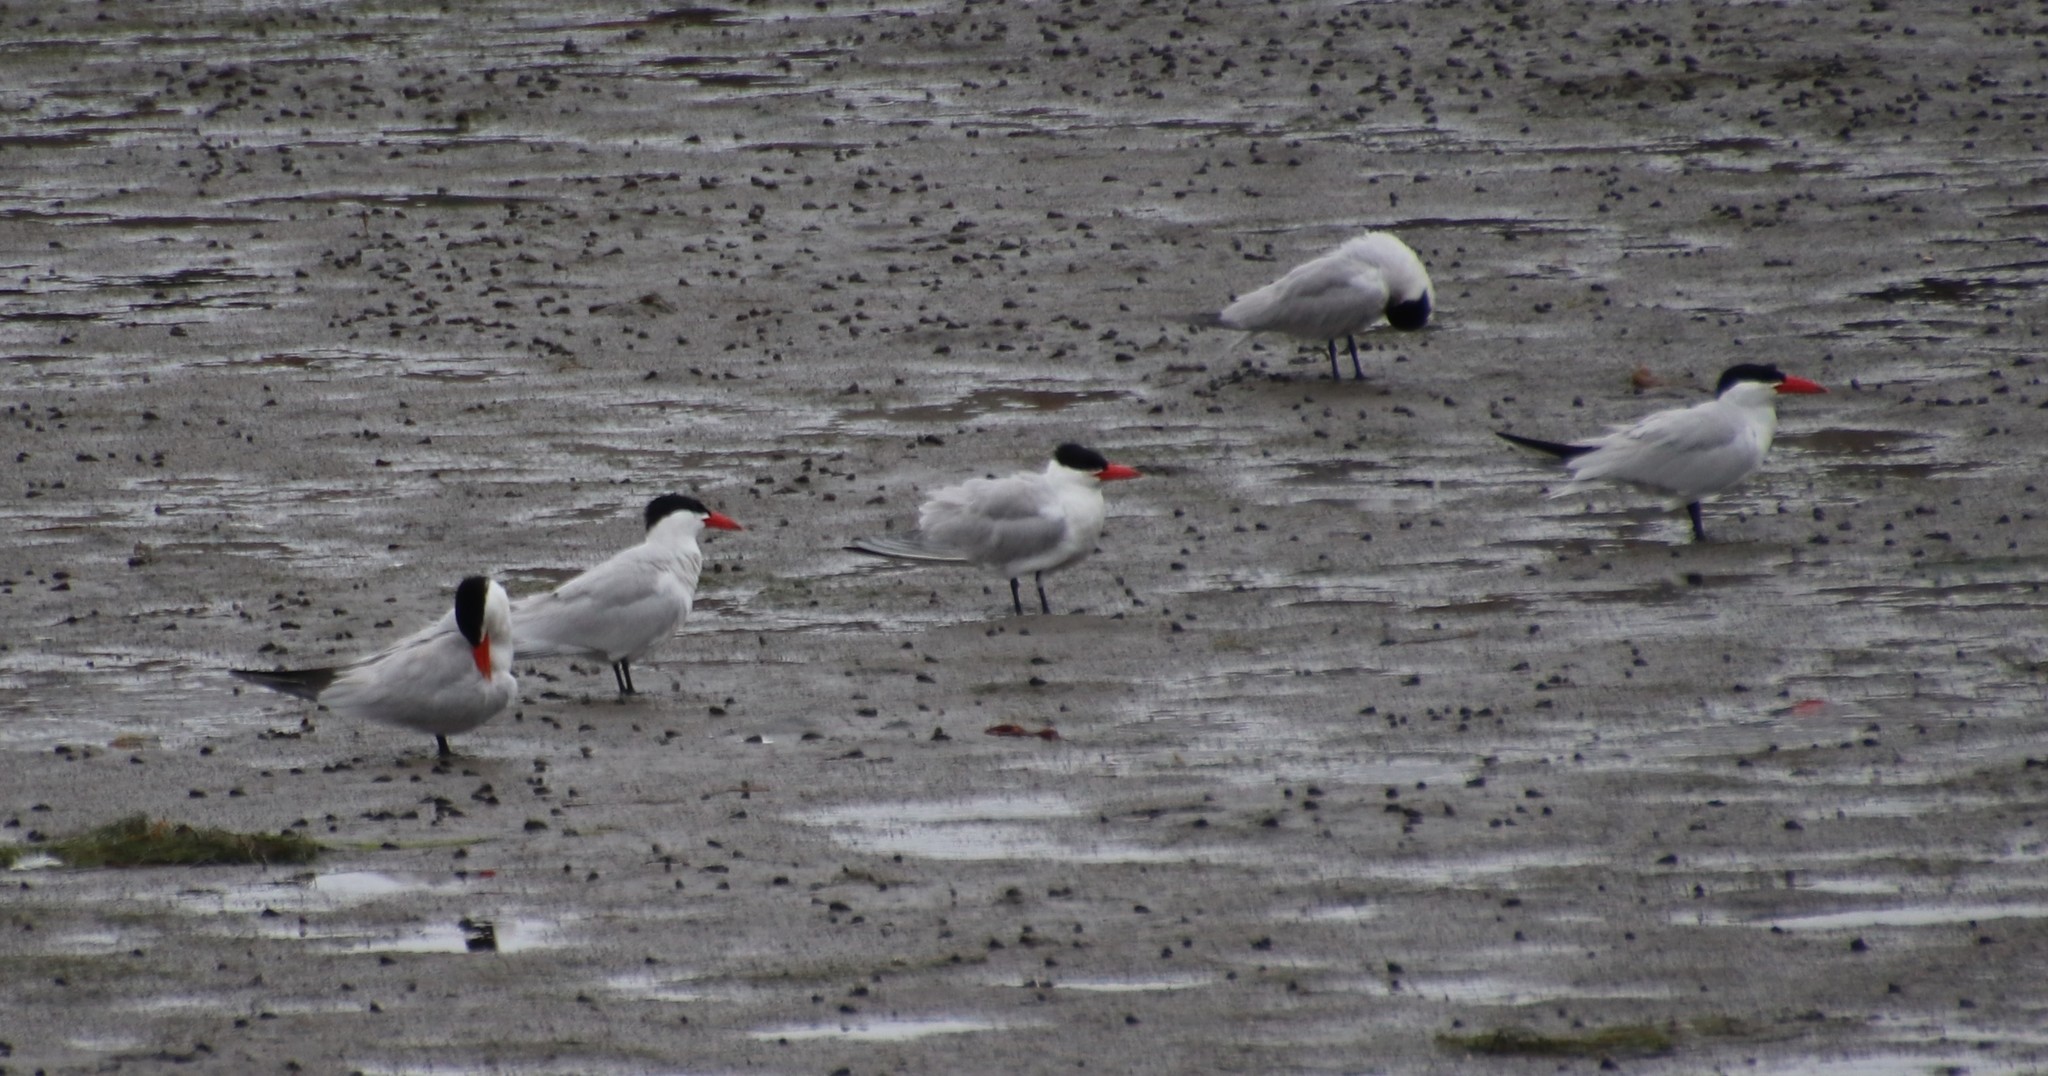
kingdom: Animalia
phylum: Chordata
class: Aves
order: Charadriiformes
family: Laridae
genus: Hydroprogne
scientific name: Hydroprogne caspia
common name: Caspian tern
